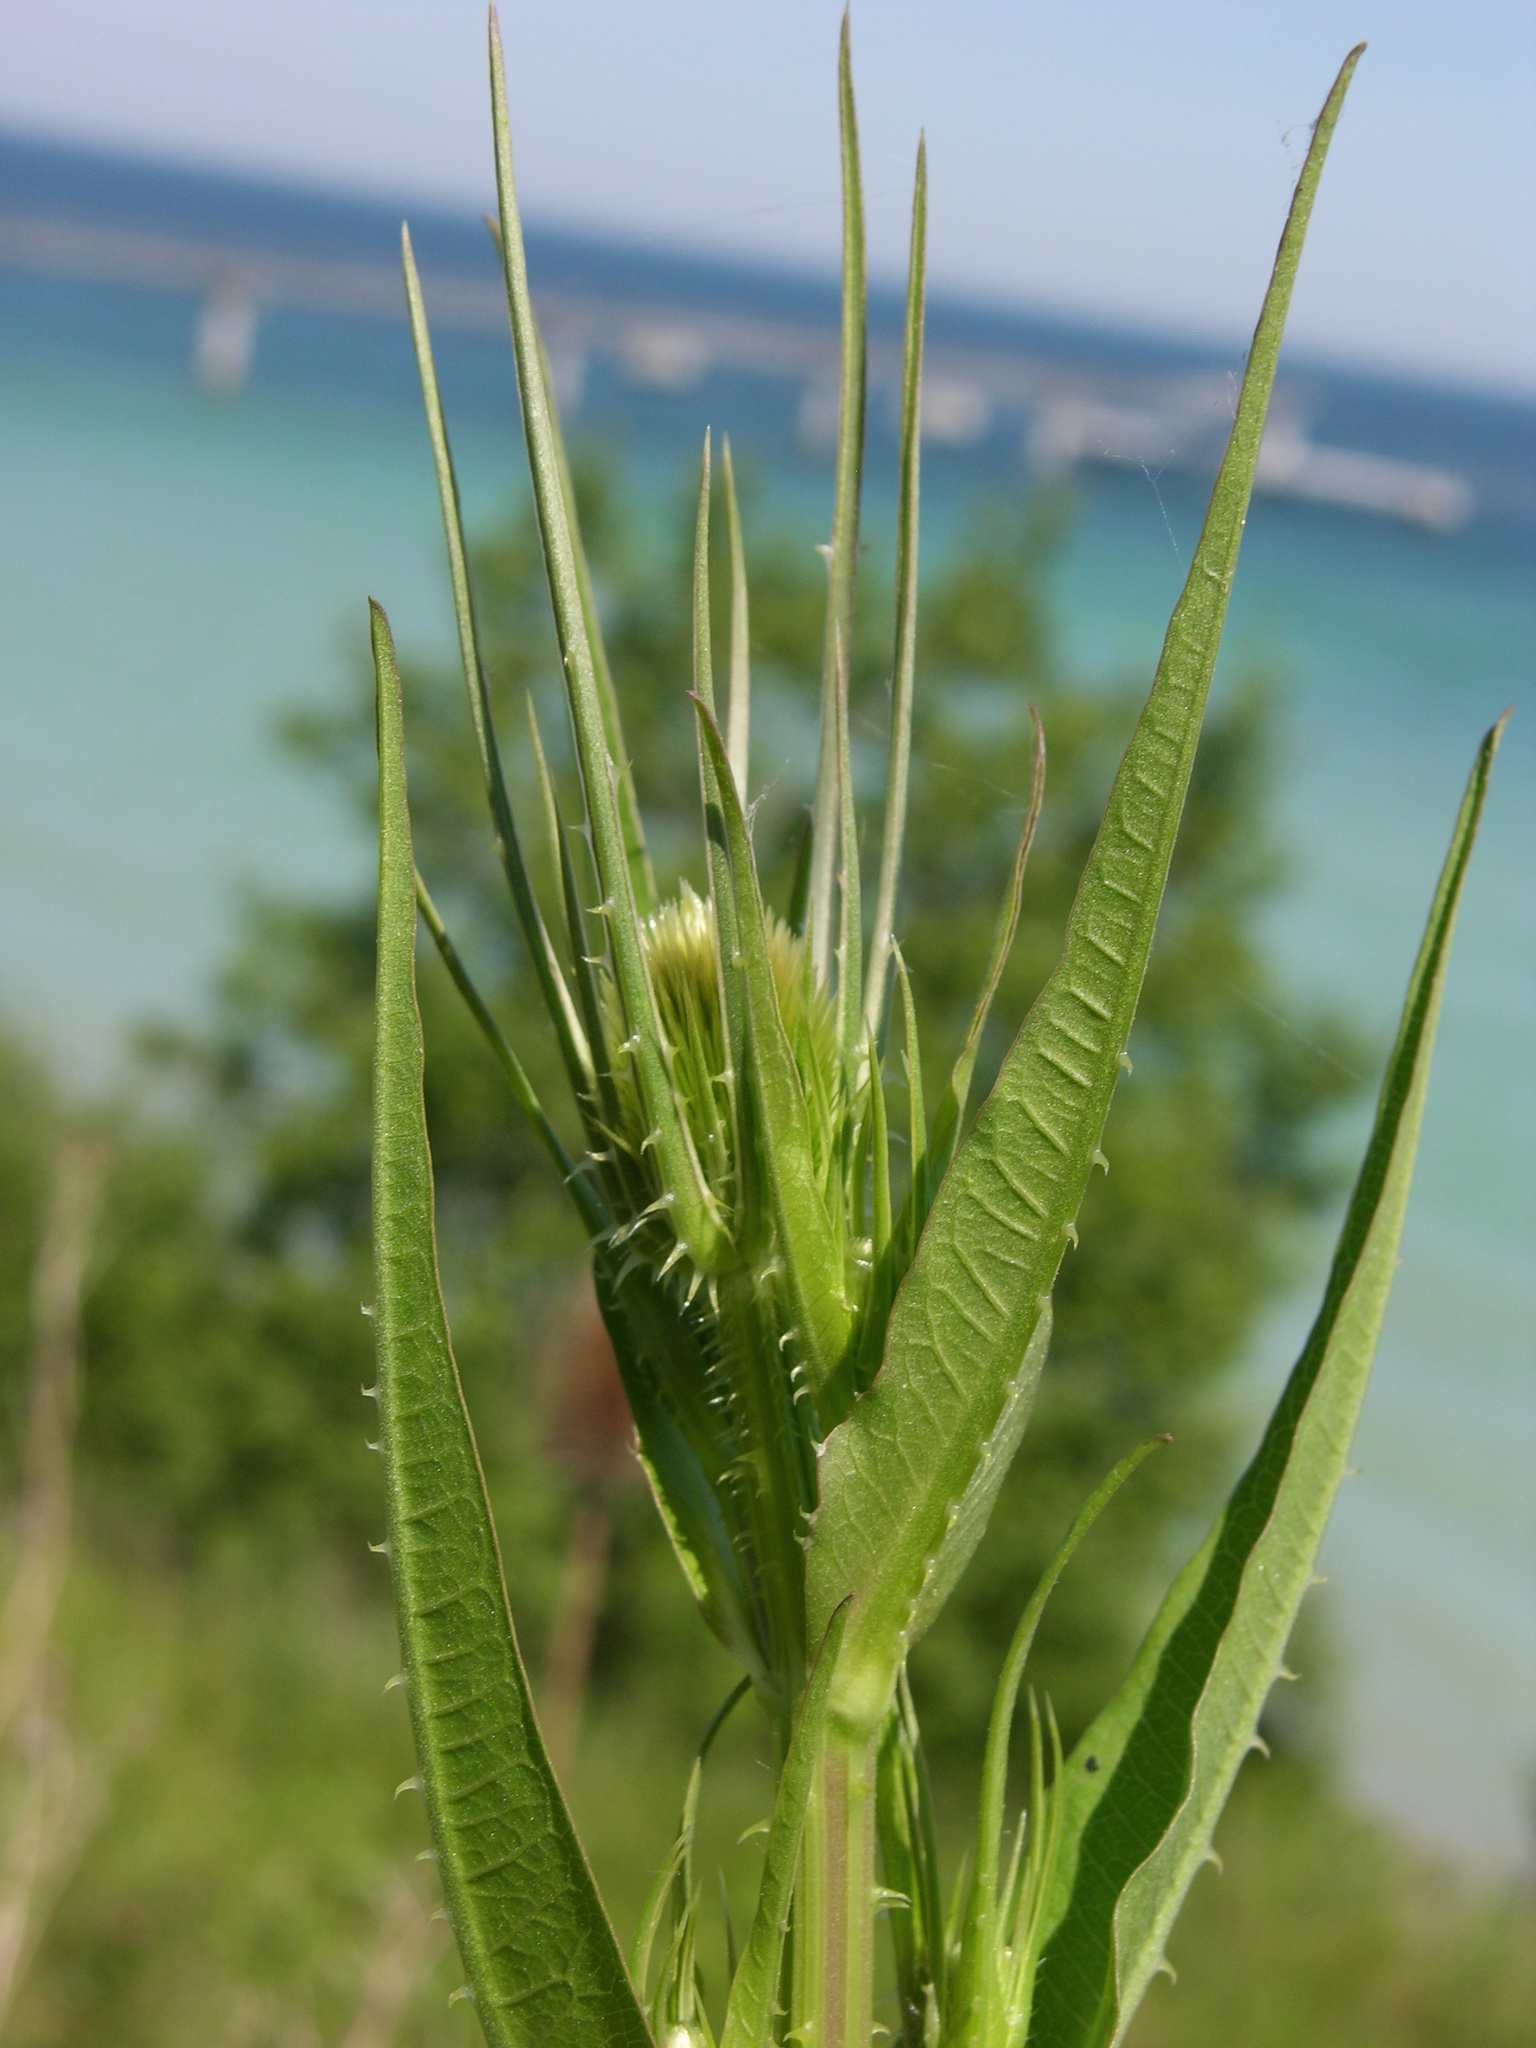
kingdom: Plantae
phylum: Tracheophyta
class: Magnoliopsida
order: Dipsacales
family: Caprifoliaceae
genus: Dipsacus
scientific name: Dipsacus fullonum
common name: Teasel
